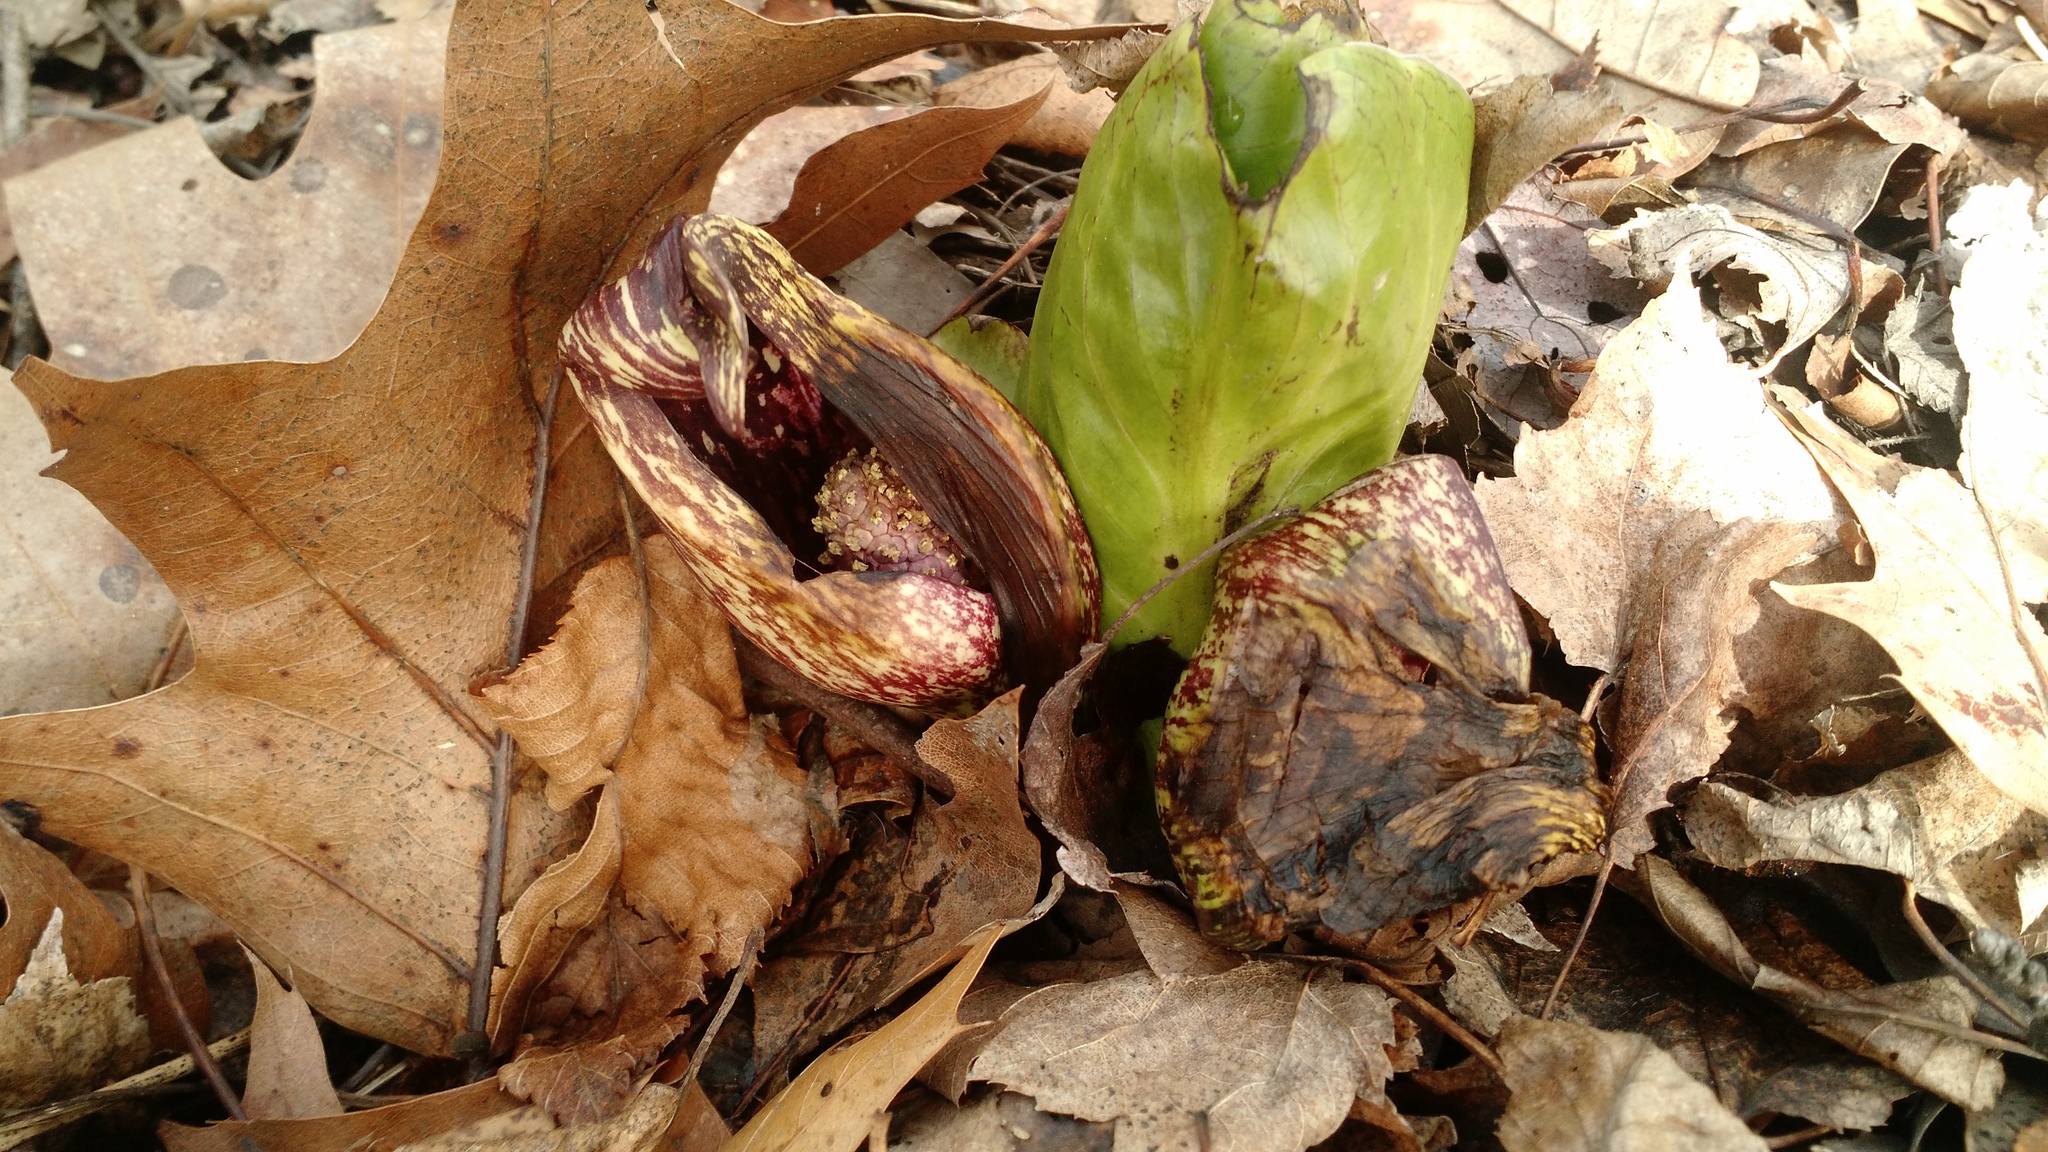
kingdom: Plantae
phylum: Tracheophyta
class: Liliopsida
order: Alismatales
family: Araceae
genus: Symplocarpus
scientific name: Symplocarpus foetidus
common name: Eastern skunk cabbage
